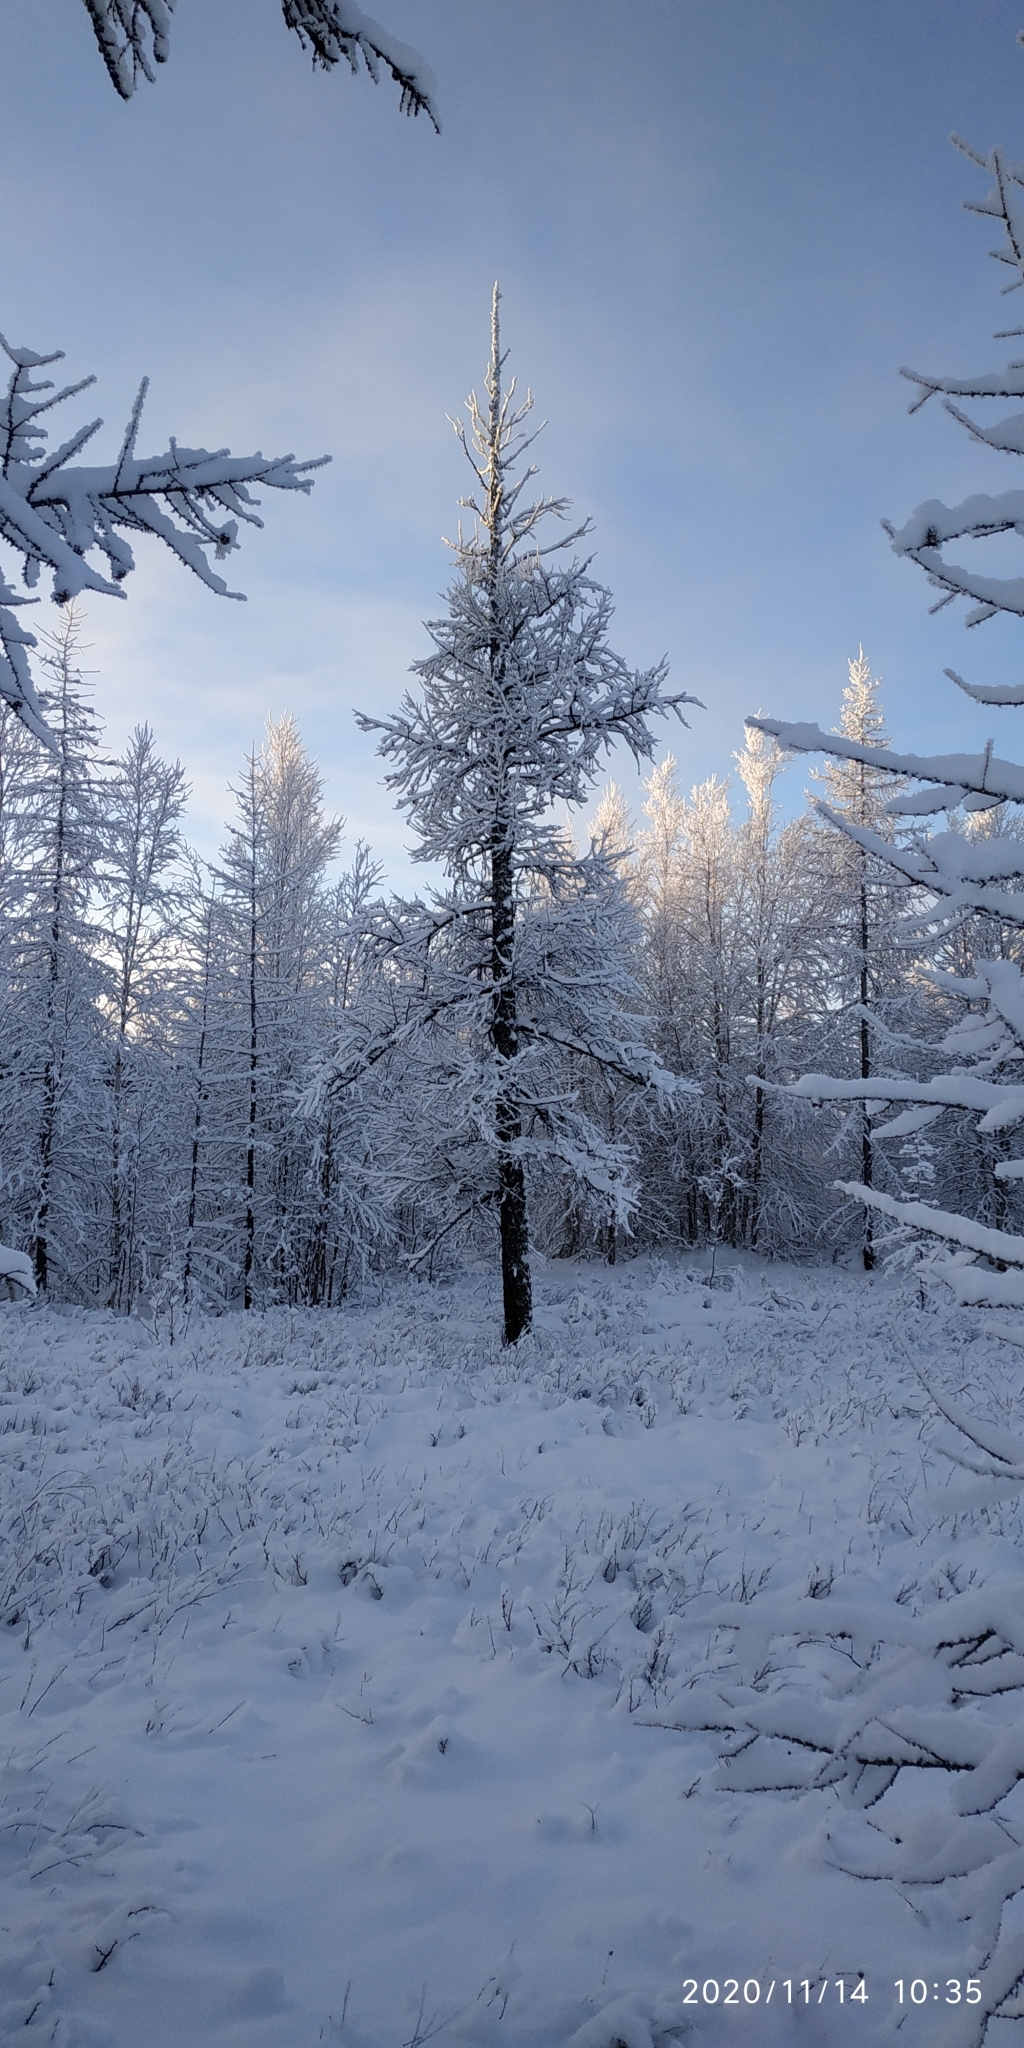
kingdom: Plantae
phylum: Tracheophyta
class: Pinopsida
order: Pinales
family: Pinaceae
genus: Larix
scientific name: Larix sibirica
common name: Siberian larch
